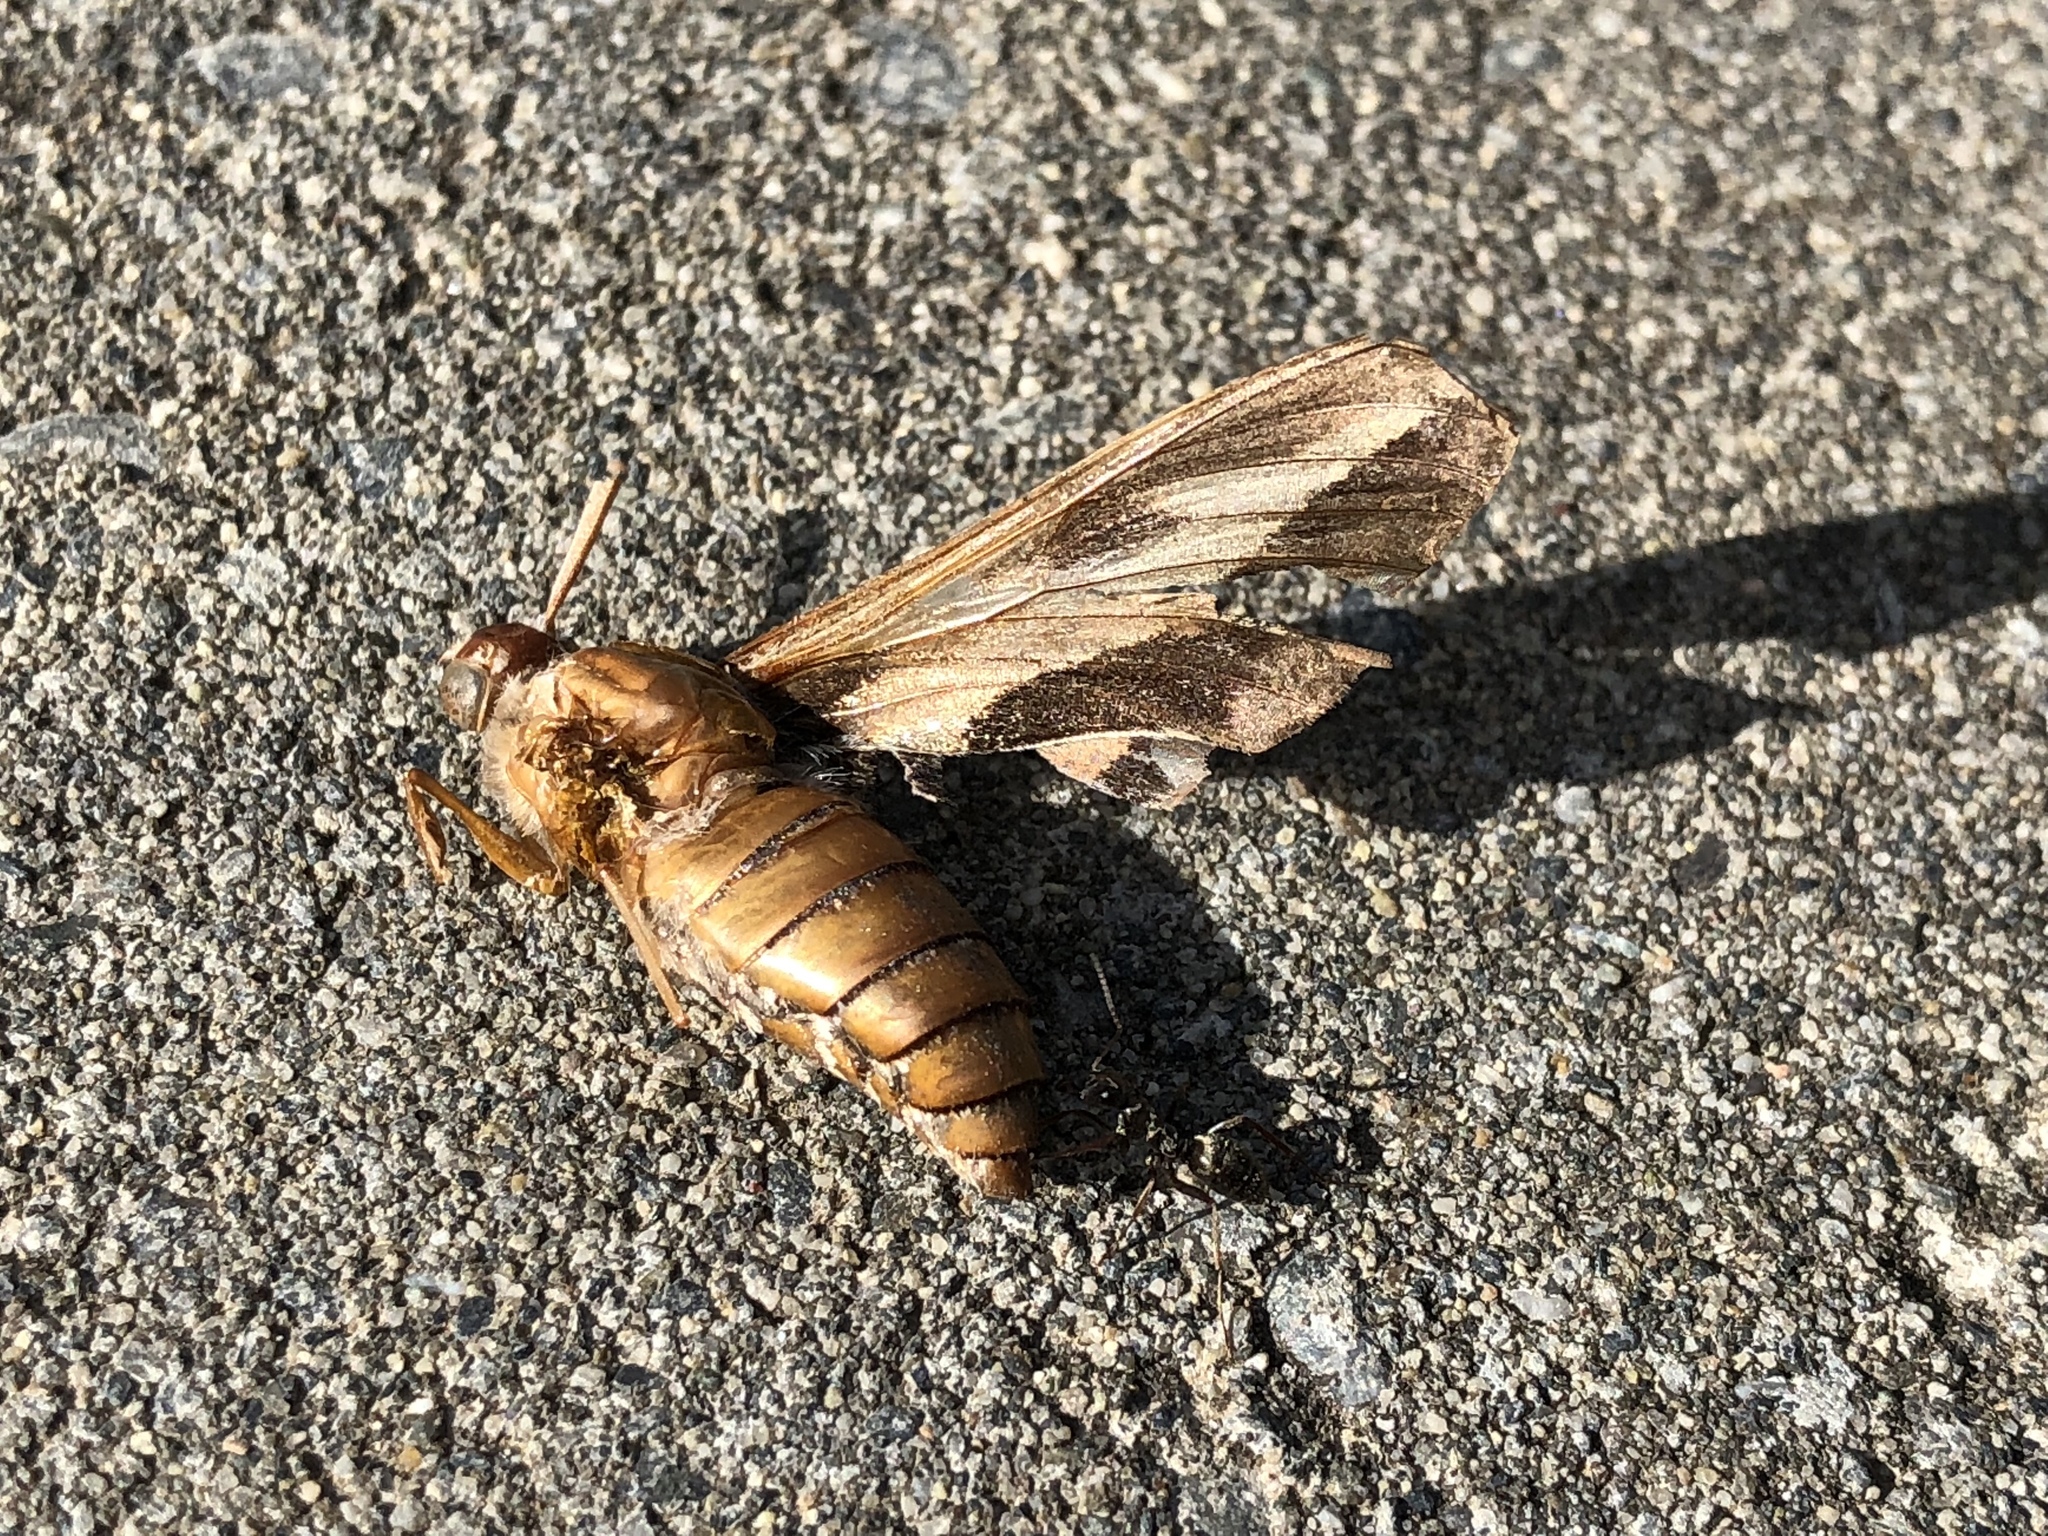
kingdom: Animalia
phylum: Arthropoda
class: Insecta
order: Lepidoptera
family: Sphingidae
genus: Hyles
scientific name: Hyles gallii
